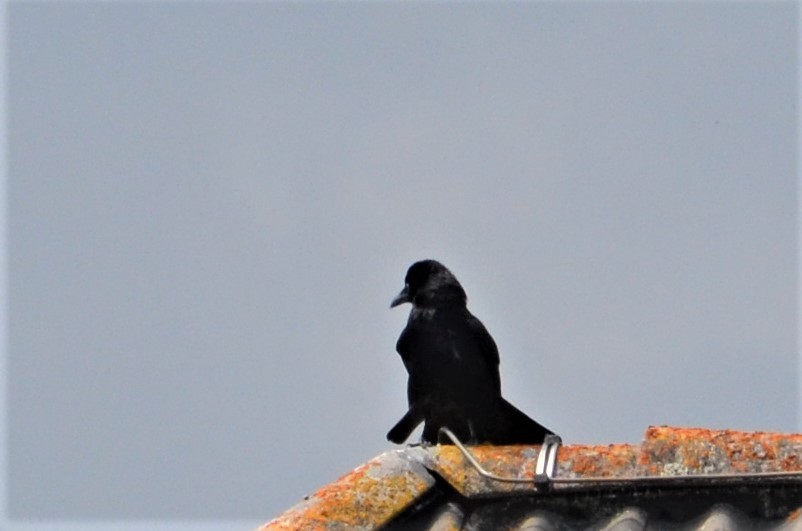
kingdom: Animalia
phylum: Chordata
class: Aves
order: Passeriformes
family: Corvidae
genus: Corvus
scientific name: Corvus
